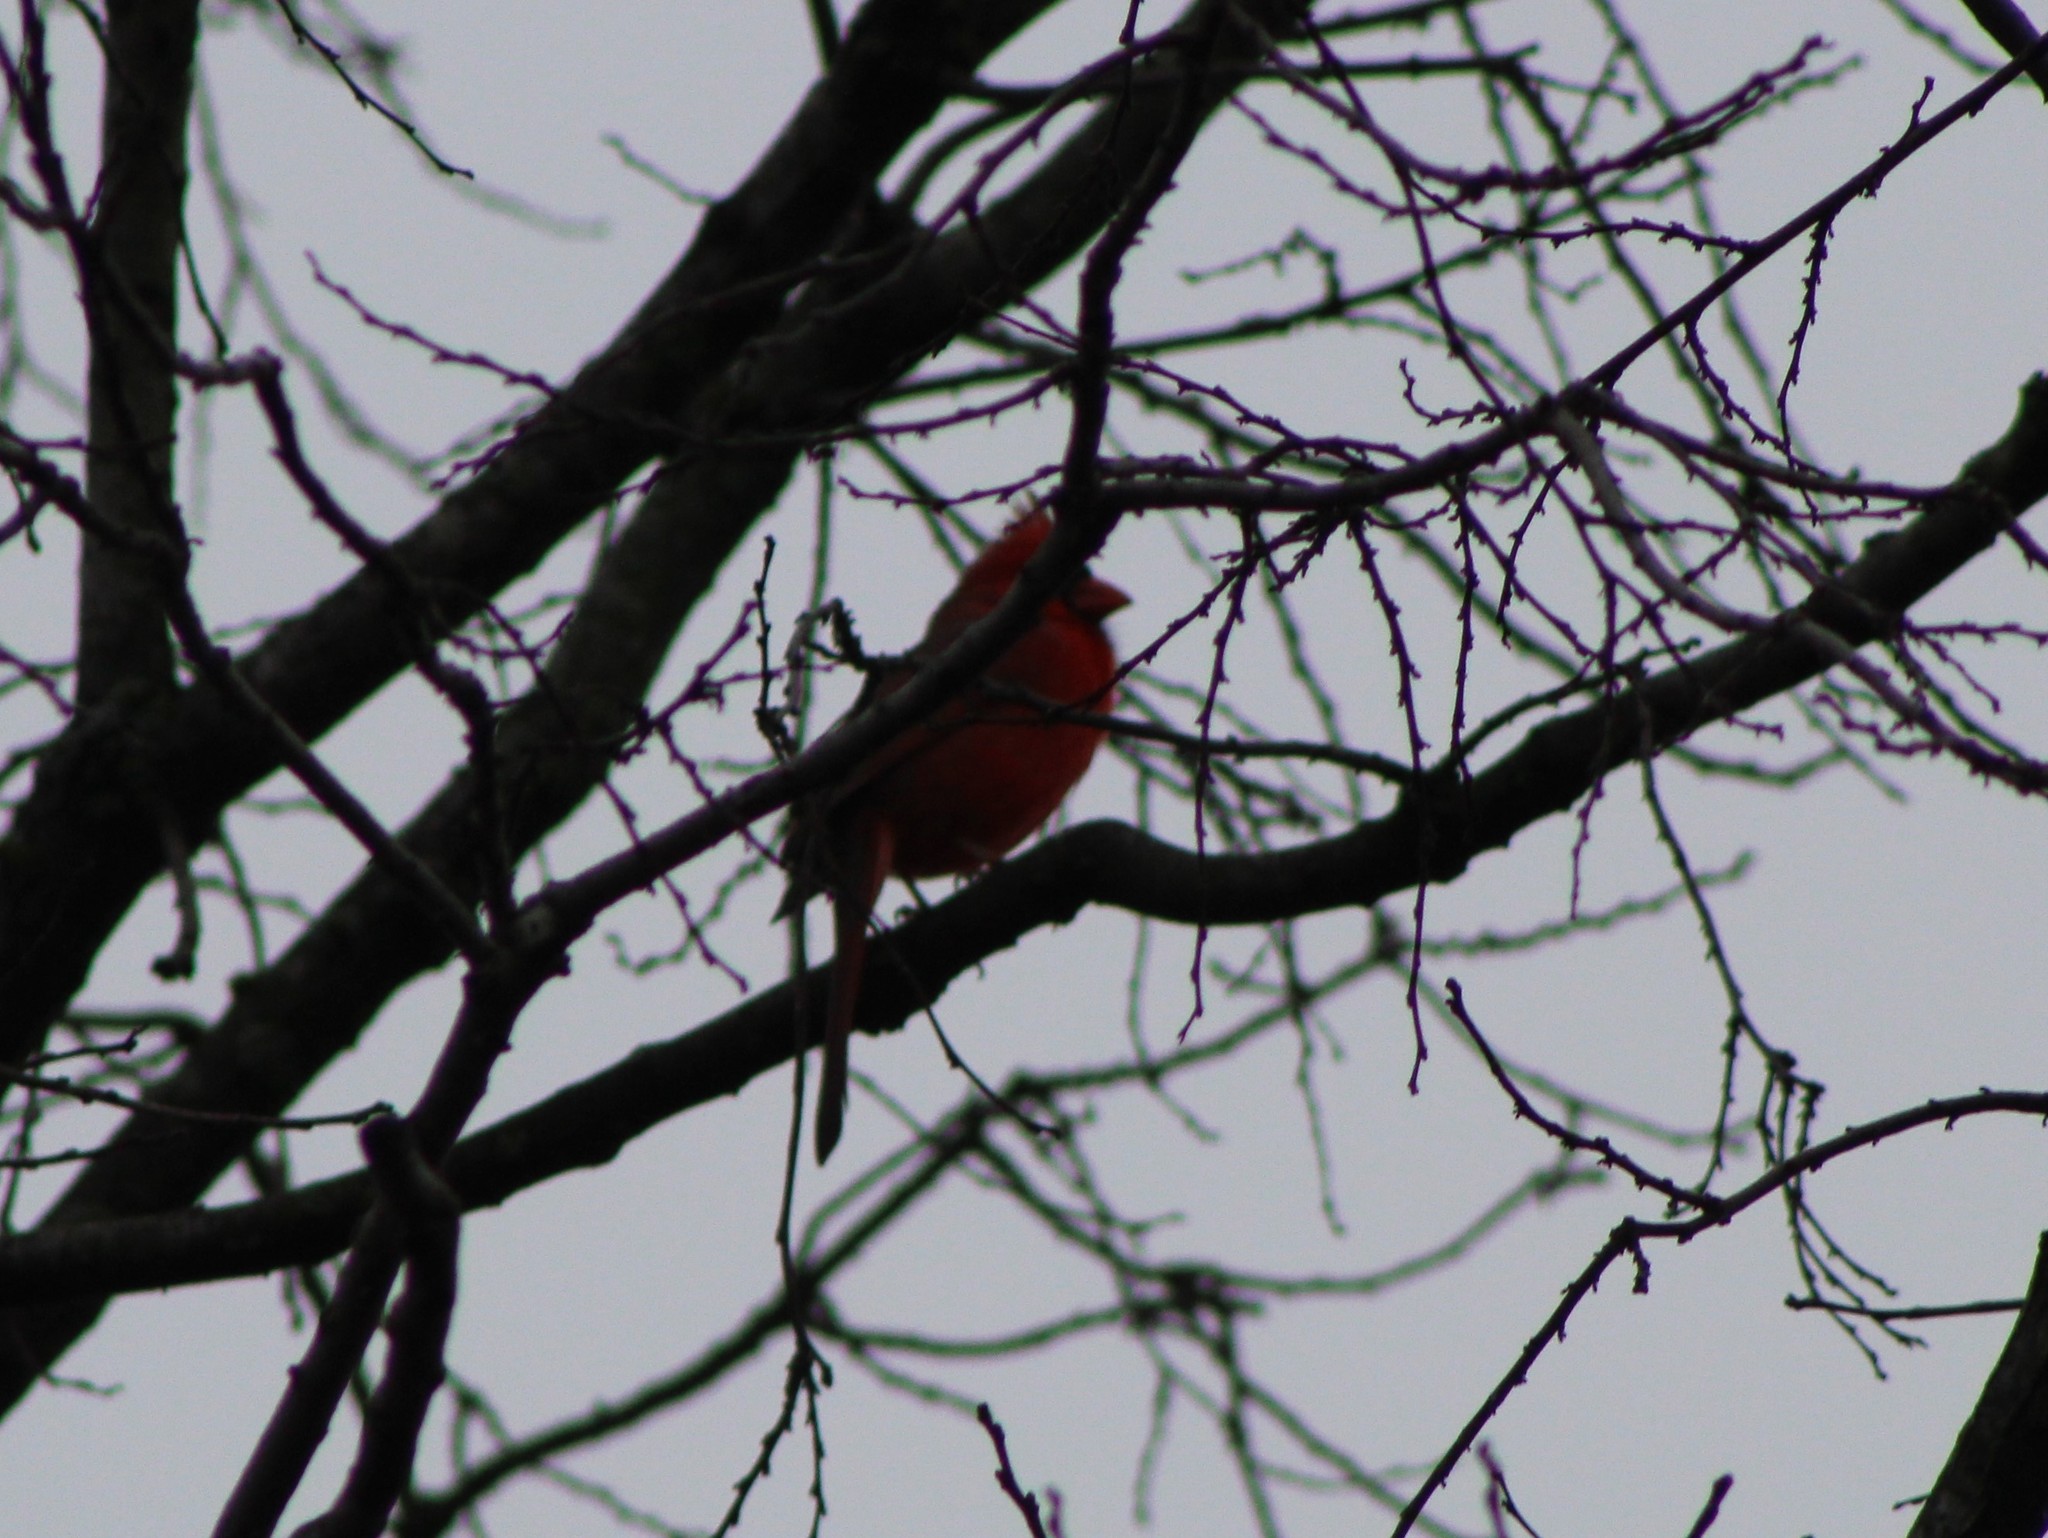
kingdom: Animalia
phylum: Chordata
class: Aves
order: Passeriformes
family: Cardinalidae
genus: Cardinalis
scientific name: Cardinalis cardinalis
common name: Northern cardinal
